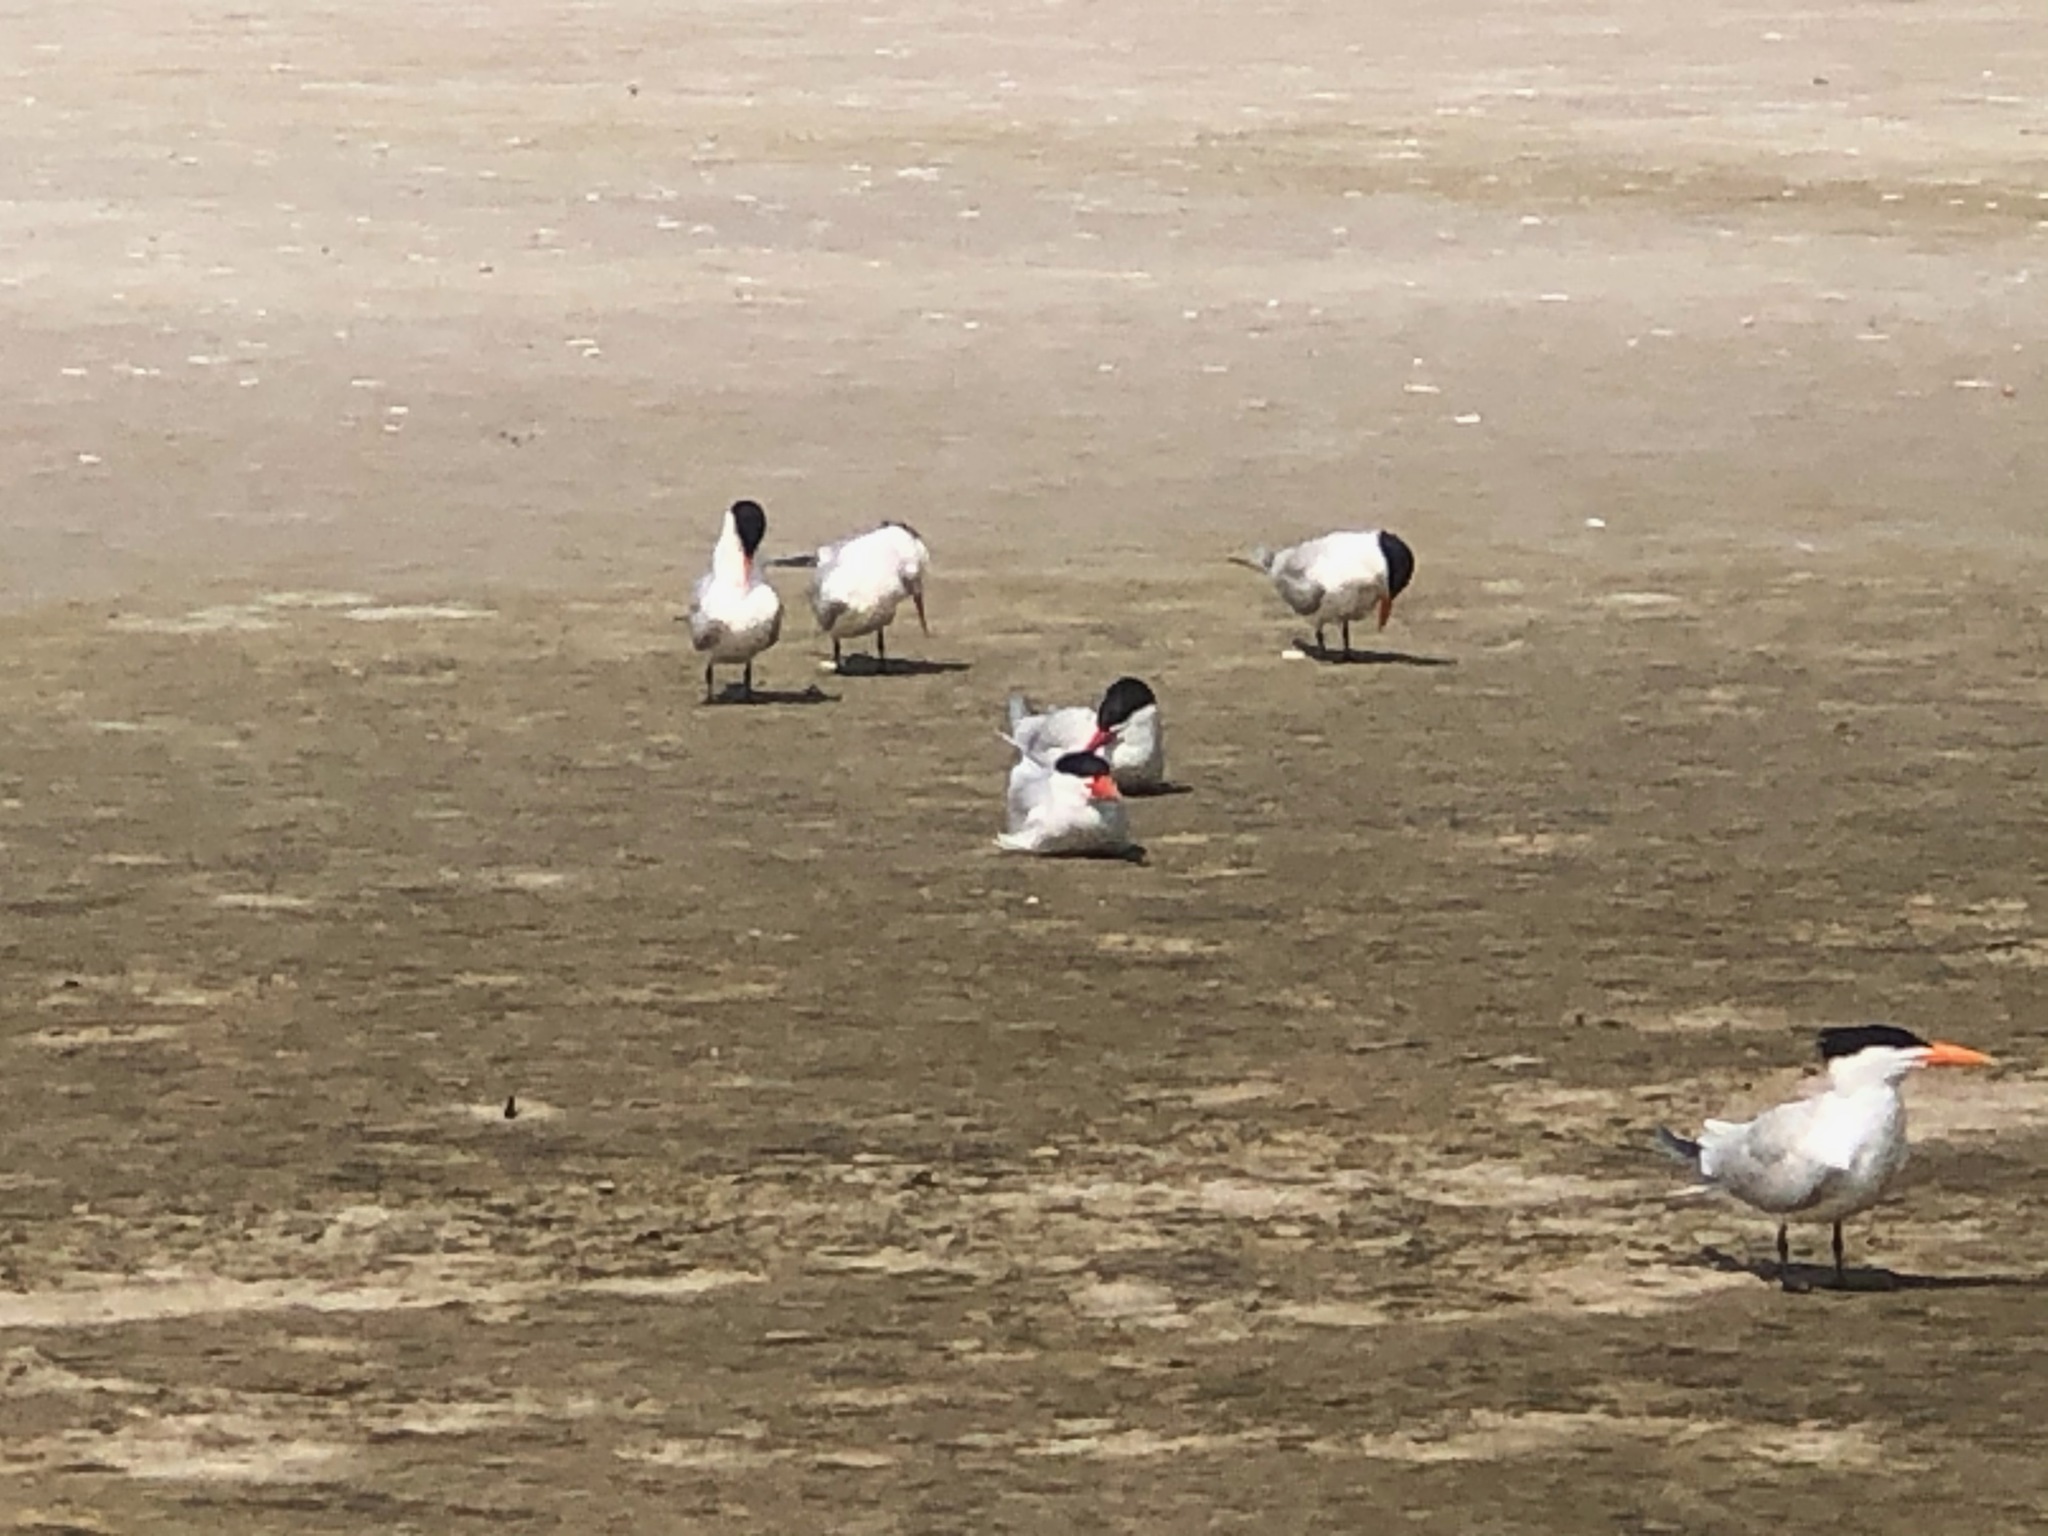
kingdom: Animalia
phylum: Chordata
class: Aves
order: Charadriiformes
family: Laridae
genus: Hydroprogne
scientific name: Hydroprogne caspia
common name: Caspian tern
